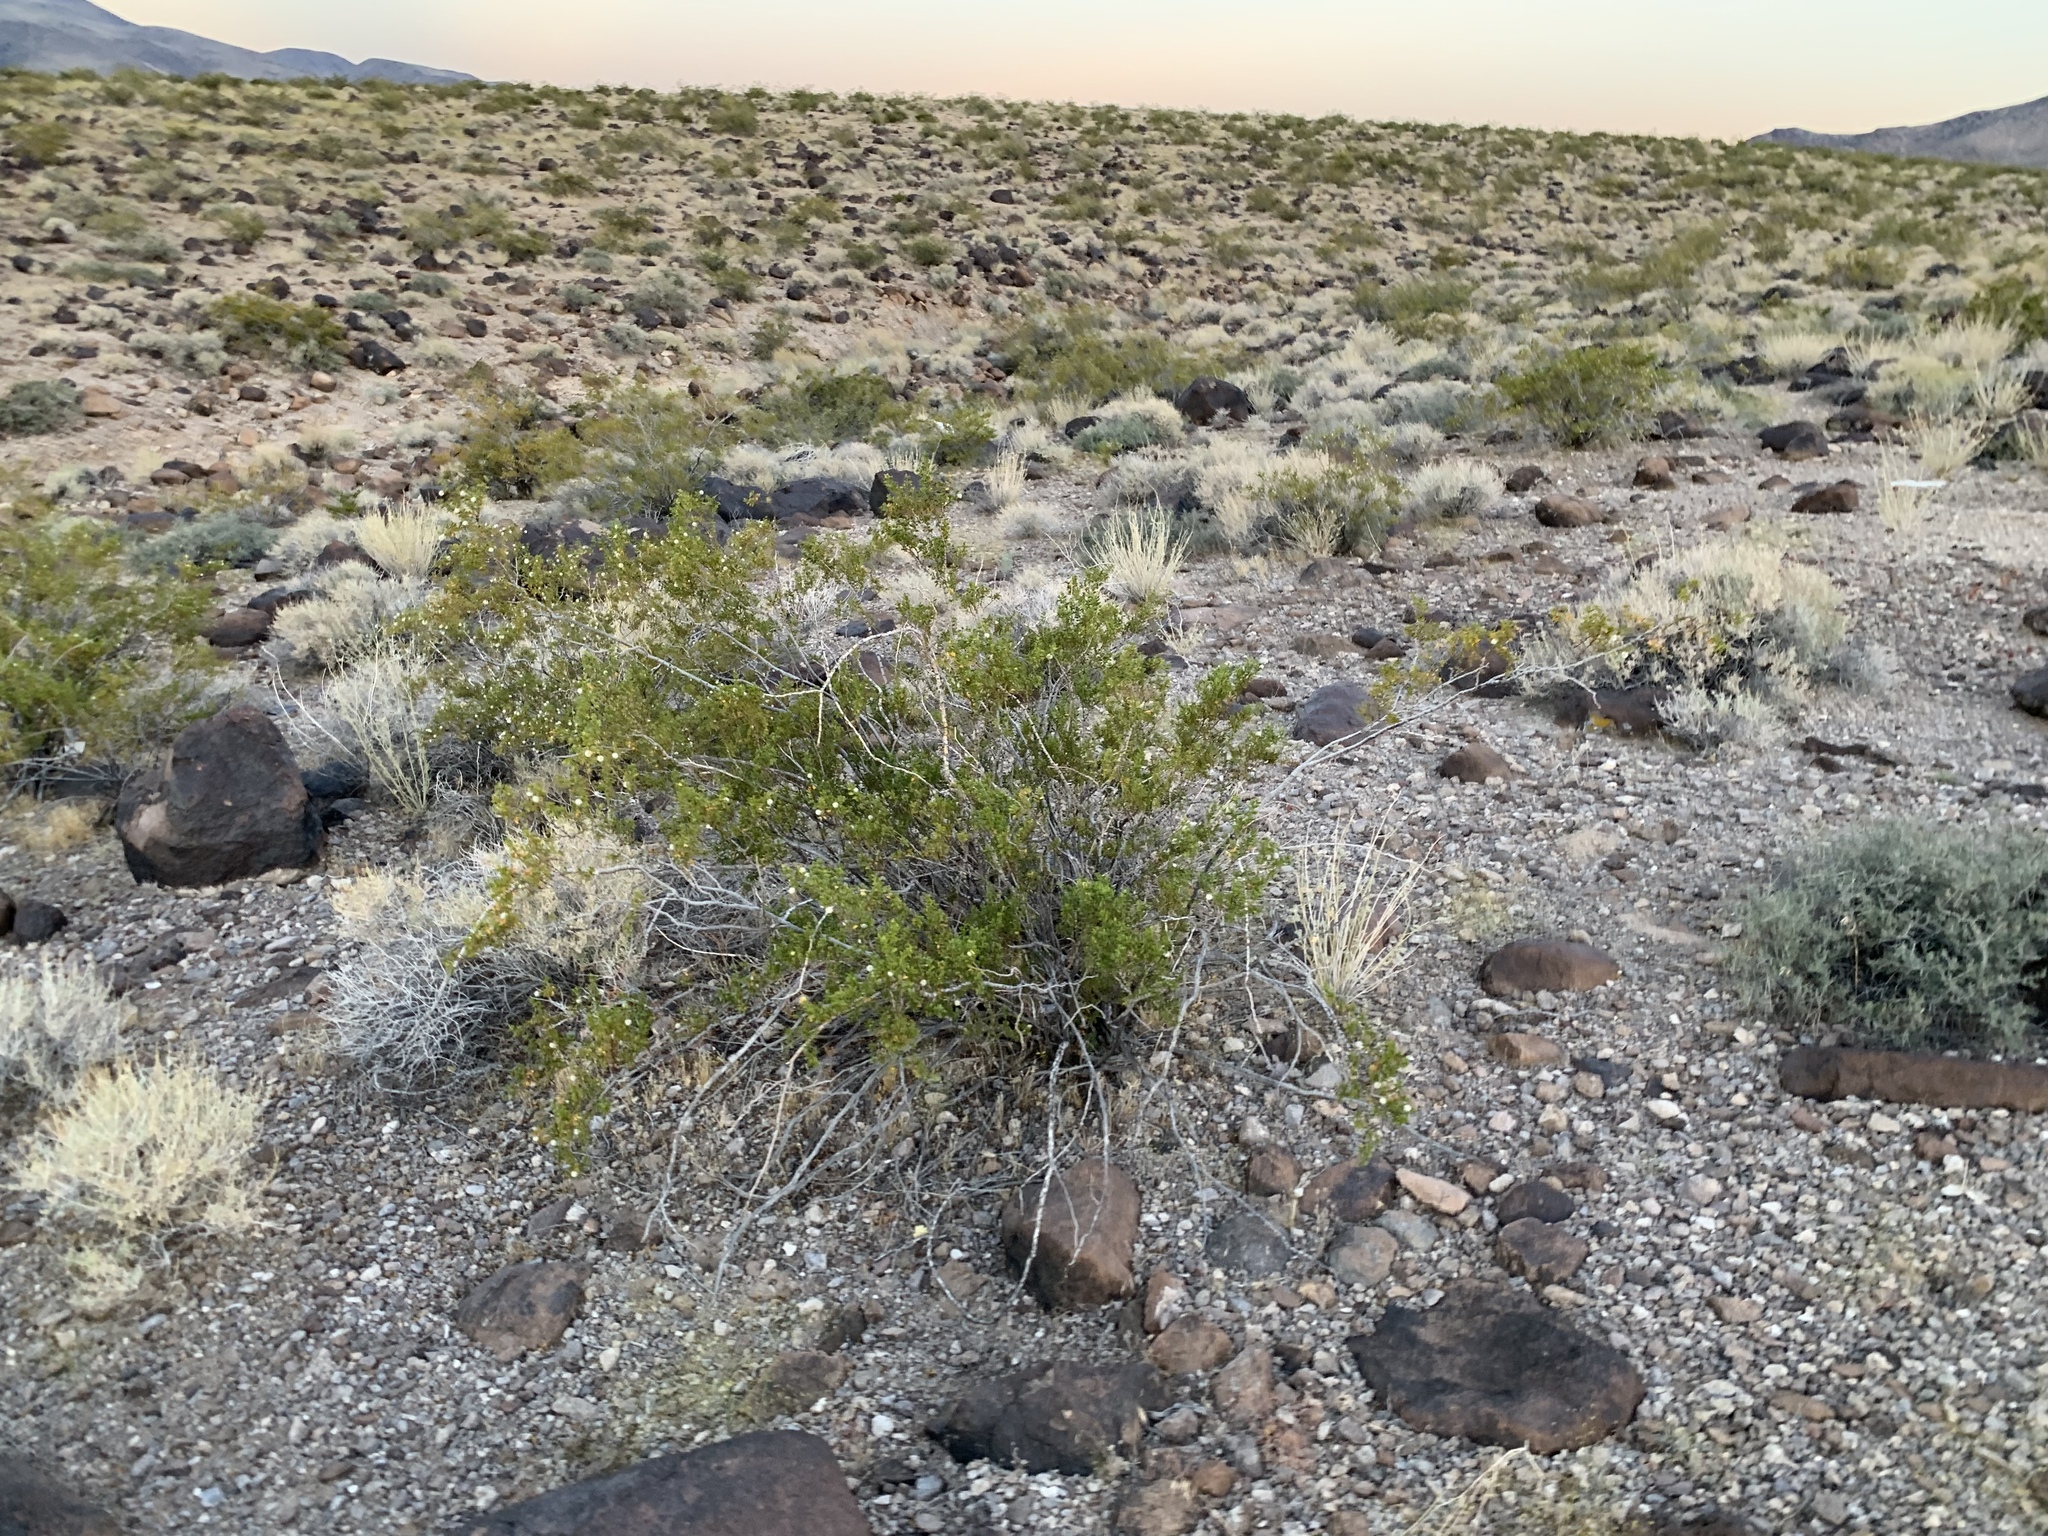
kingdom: Plantae
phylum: Tracheophyta
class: Magnoliopsida
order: Zygophyllales
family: Zygophyllaceae
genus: Larrea
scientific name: Larrea tridentata
